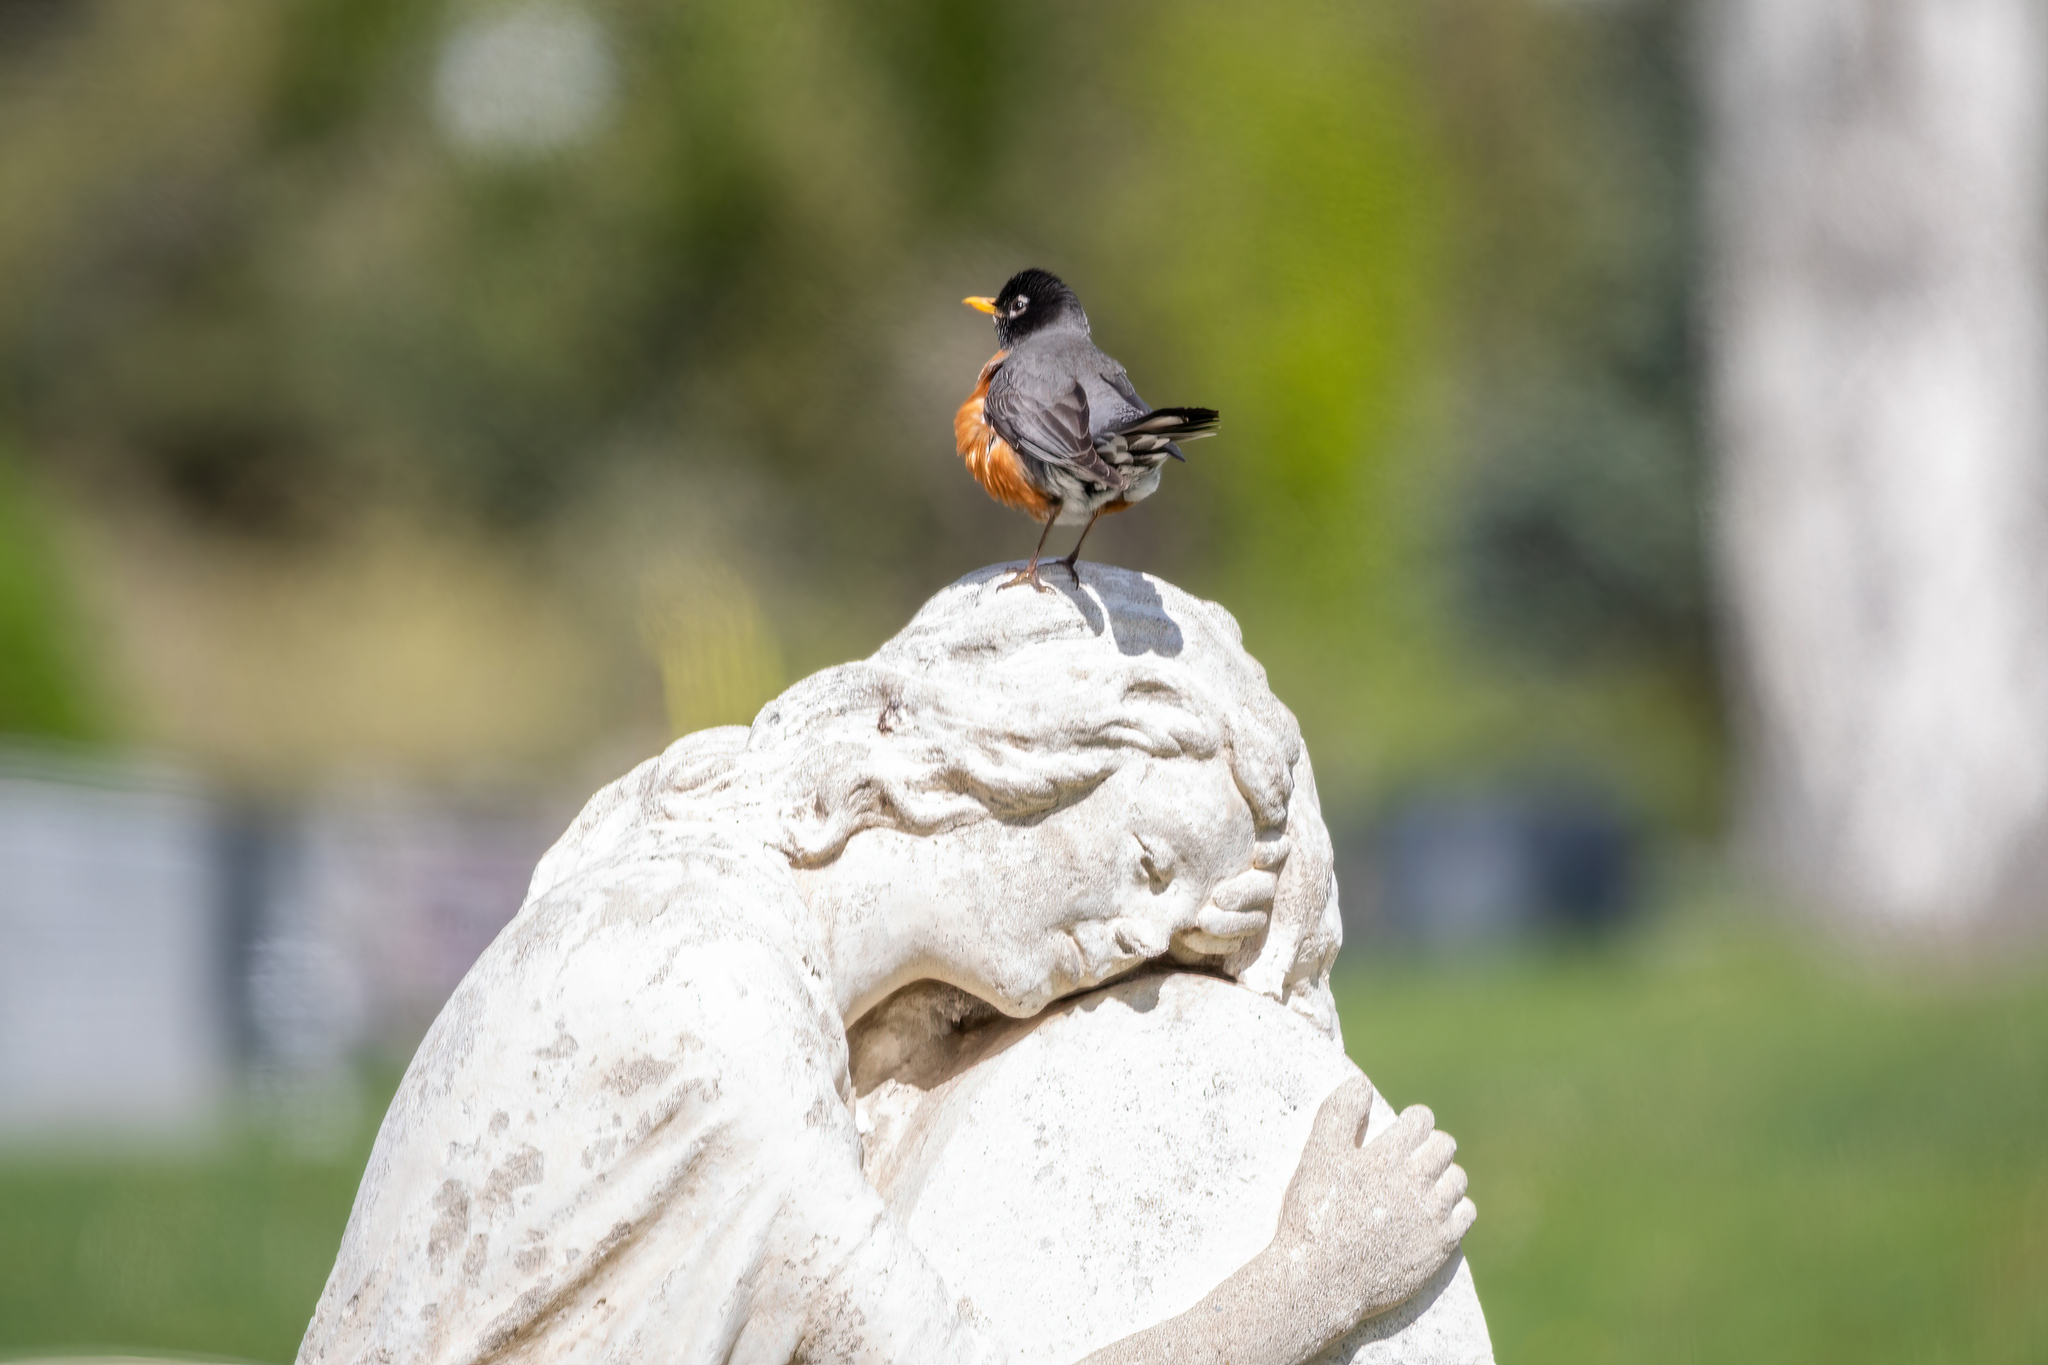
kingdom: Animalia
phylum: Chordata
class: Aves
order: Passeriformes
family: Turdidae
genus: Turdus
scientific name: Turdus migratorius
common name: American robin
